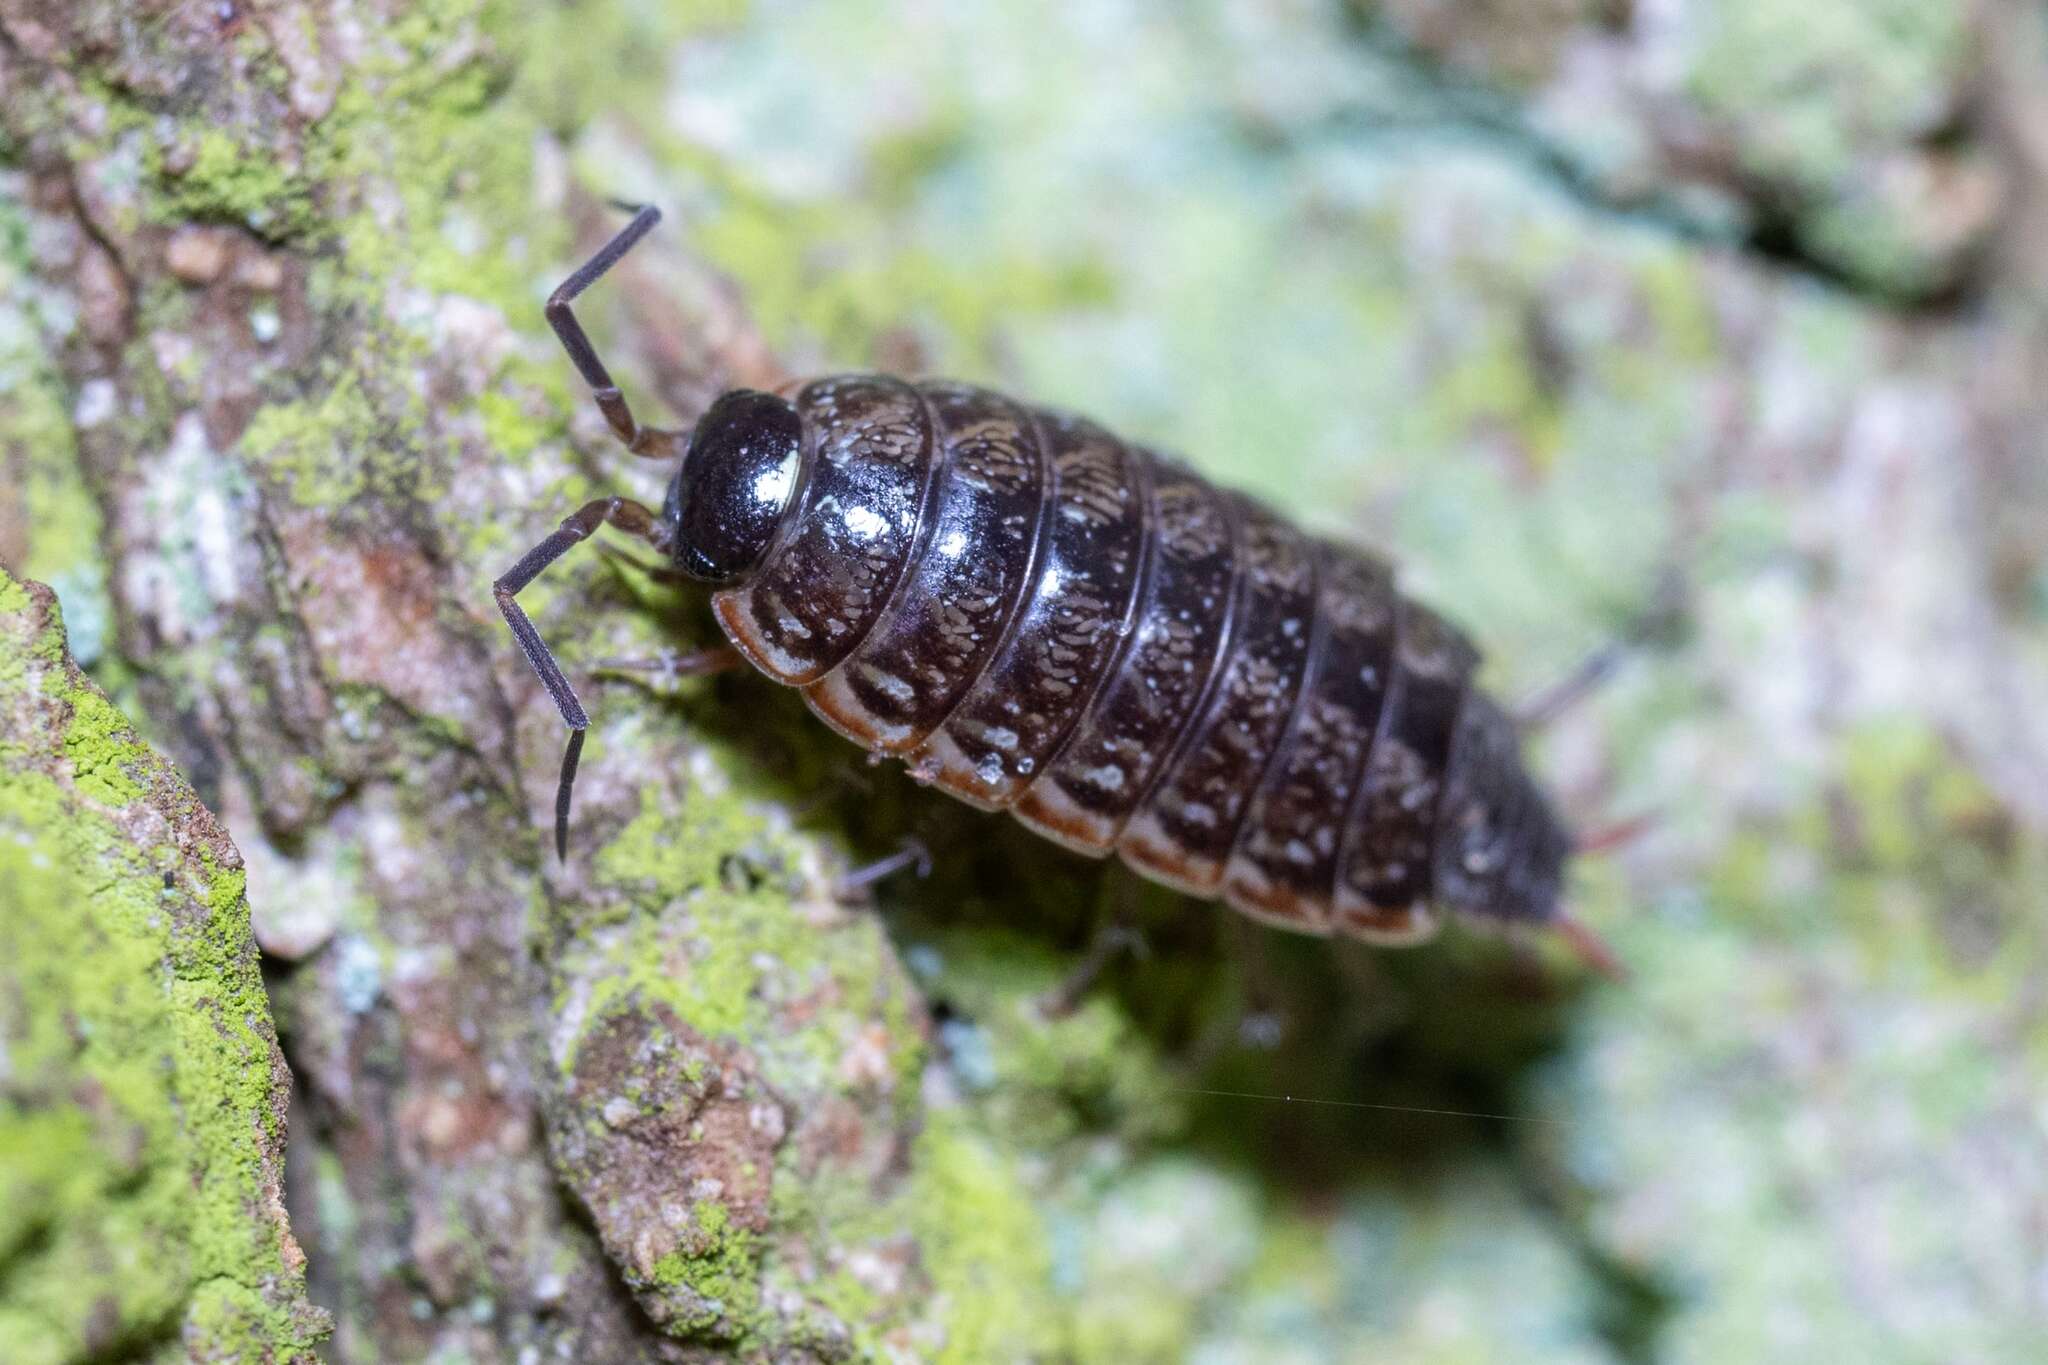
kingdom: Animalia
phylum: Arthropoda
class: Malacostraca
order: Isopoda
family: Philosciidae
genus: Philoscia
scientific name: Philoscia muscorum
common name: Common striped woodlouse
